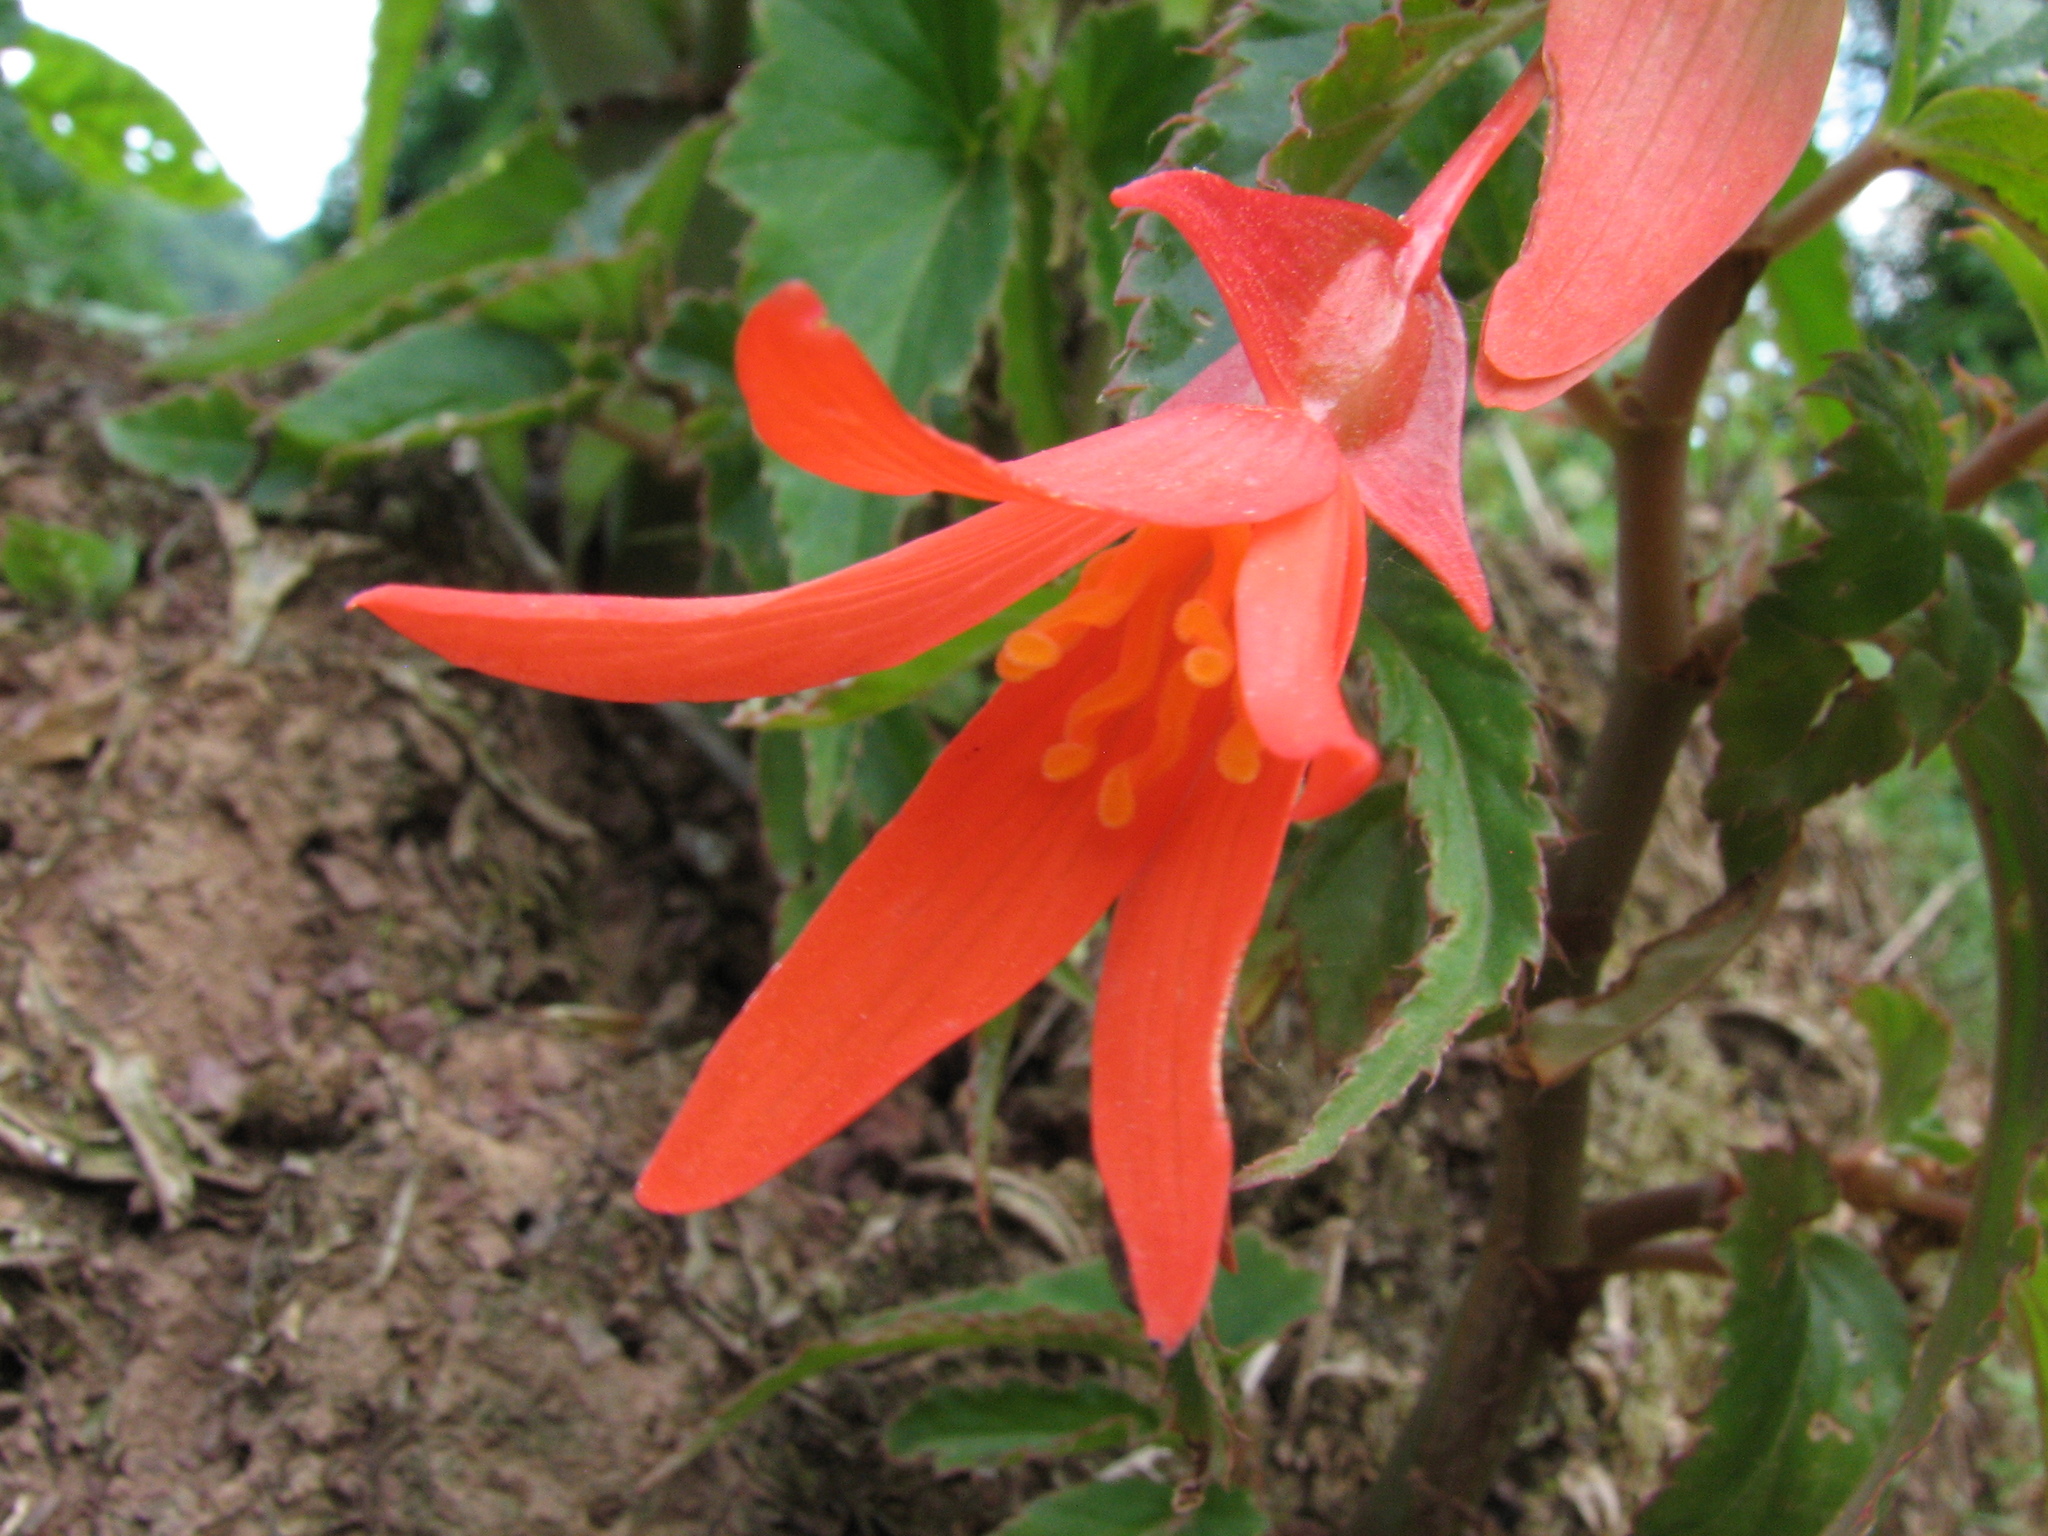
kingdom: Plantae
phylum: Tracheophyta
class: Magnoliopsida
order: Cucurbitales
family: Begoniaceae
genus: Begonia
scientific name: Begonia boliviensis
